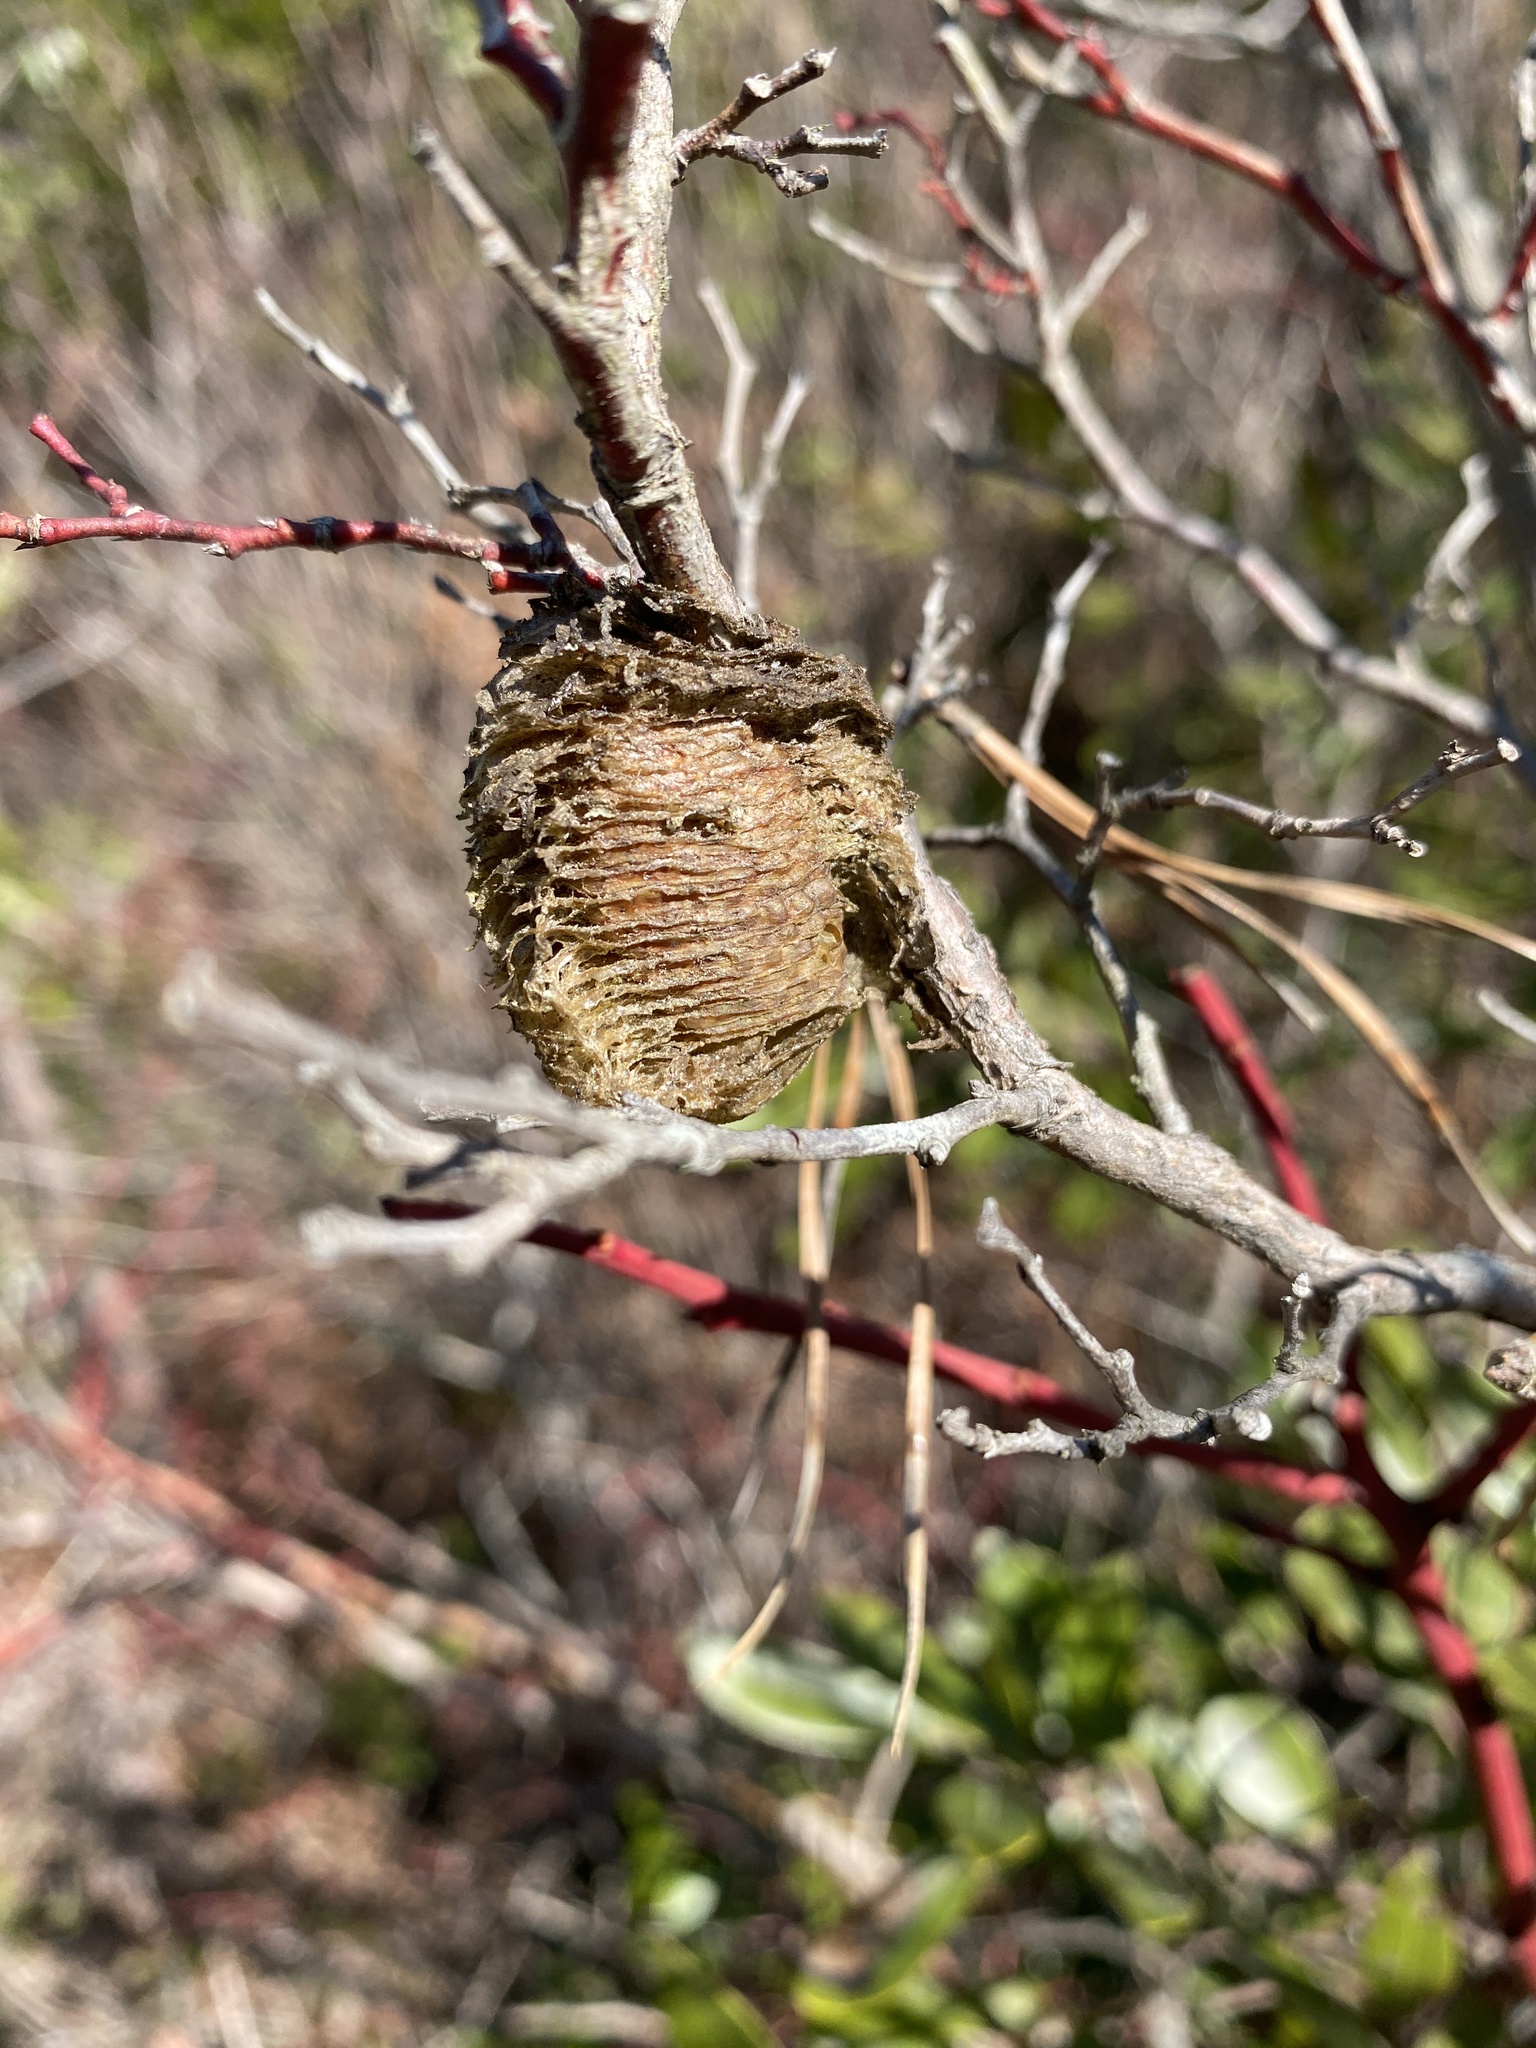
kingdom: Animalia
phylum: Arthropoda
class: Insecta
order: Mantodea
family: Mantidae
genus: Tenodera
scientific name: Tenodera sinensis
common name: Chinese mantis
